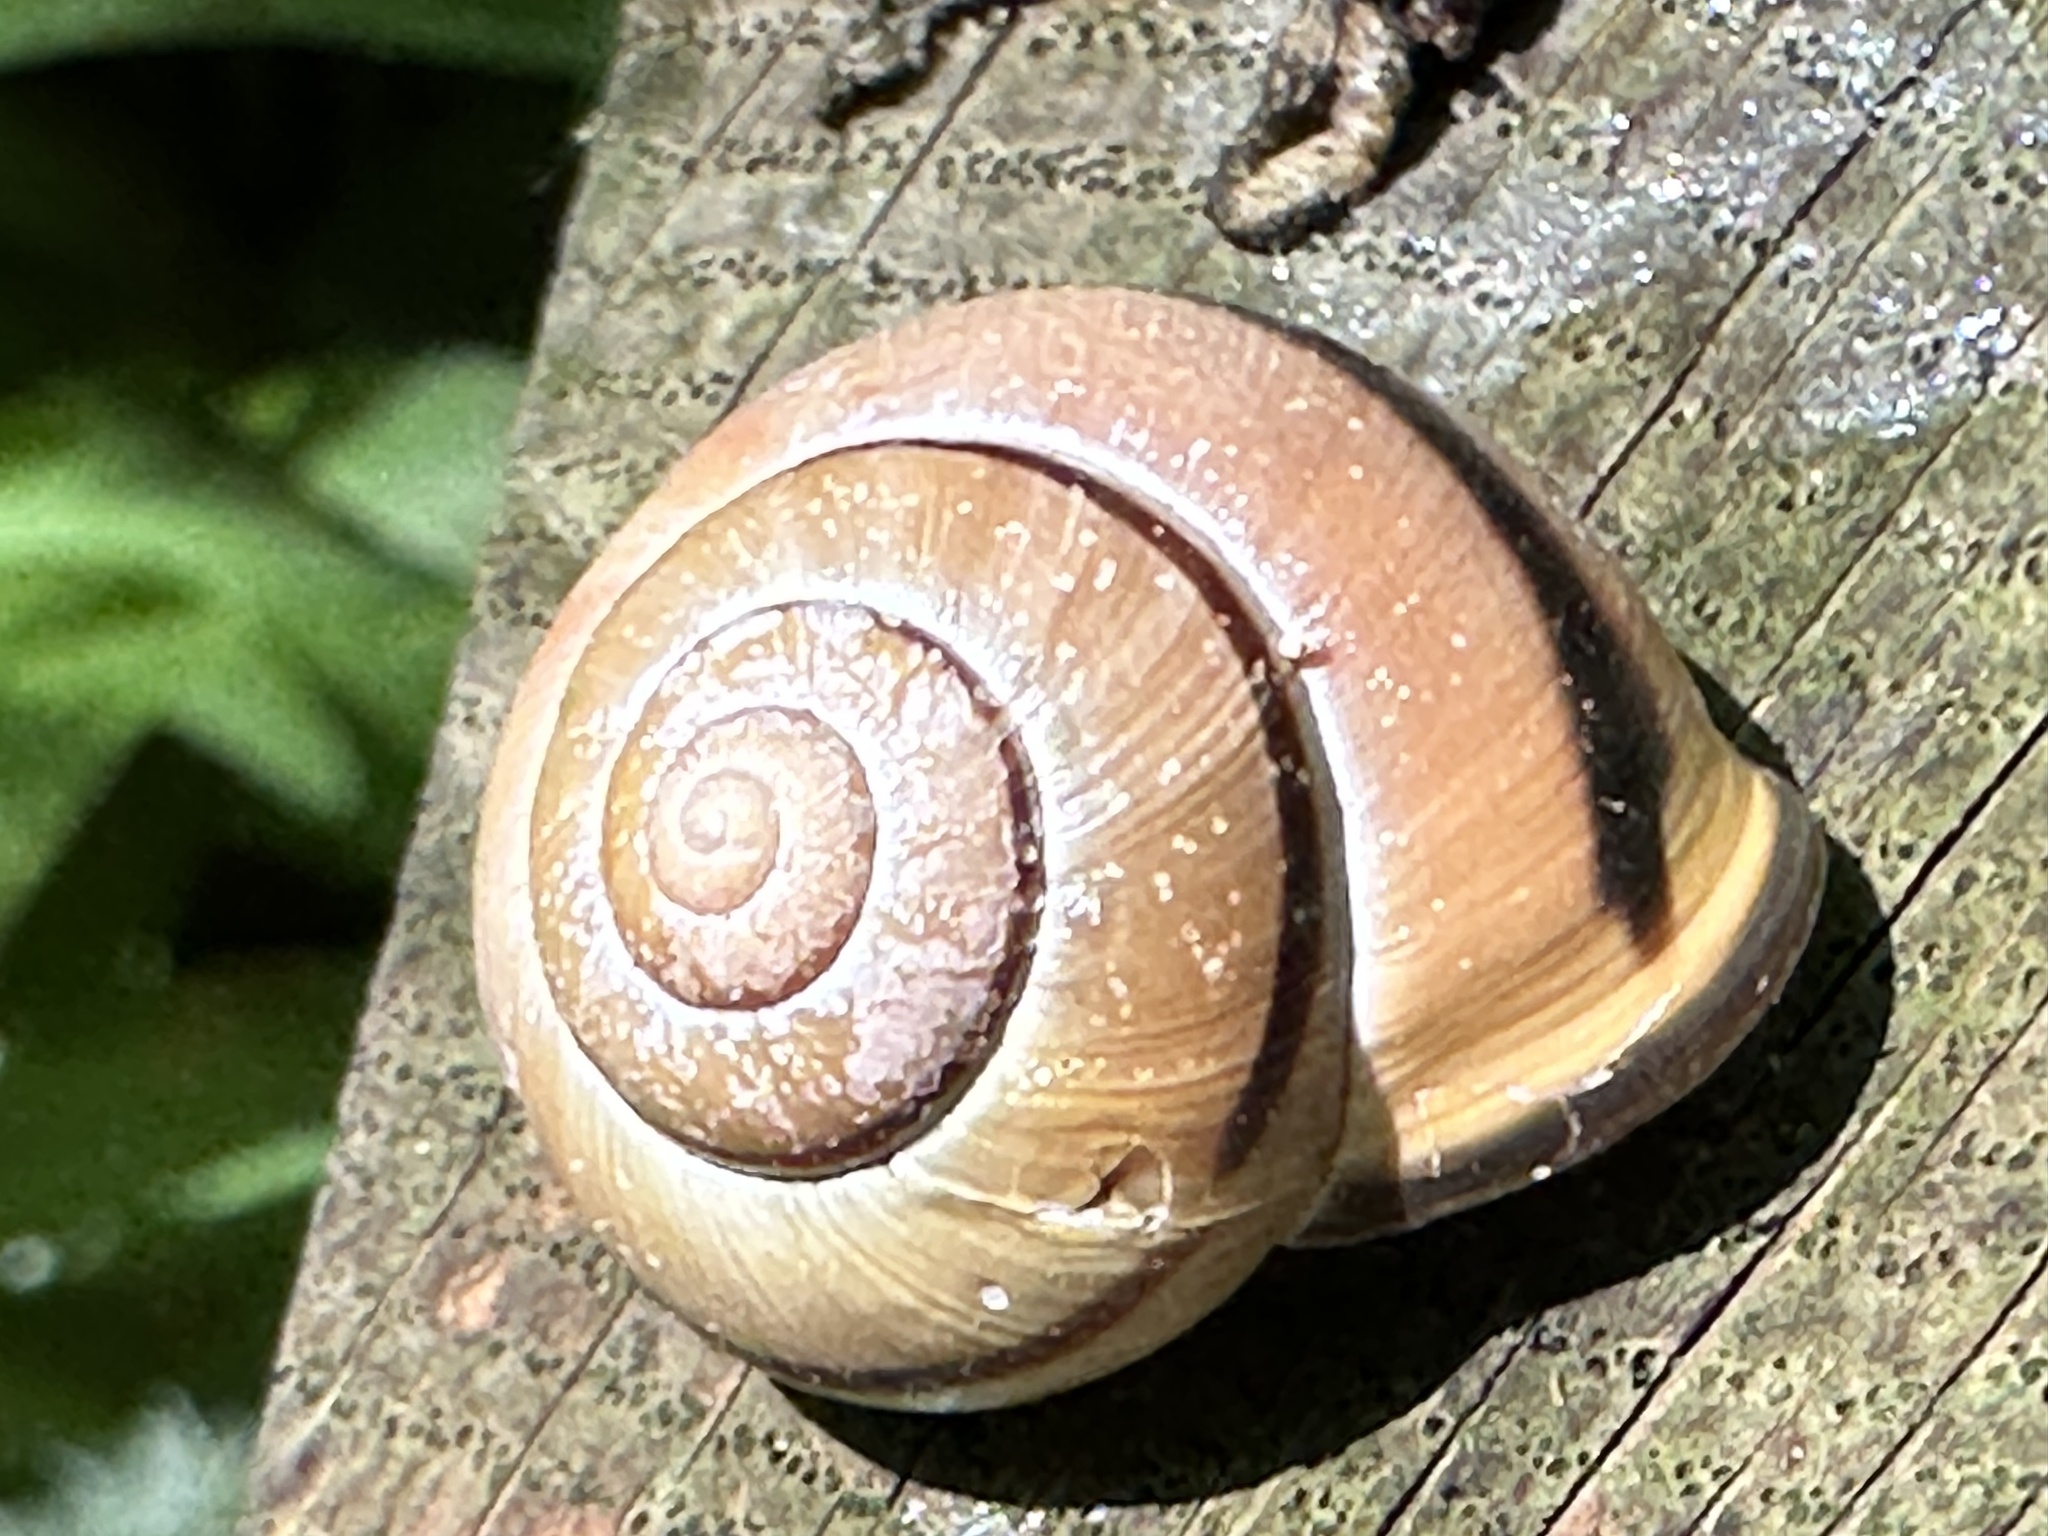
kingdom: Animalia
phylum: Mollusca
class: Gastropoda
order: Stylommatophora
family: Helicidae
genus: Cepaea
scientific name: Cepaea nemoralis
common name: Grovesnail
